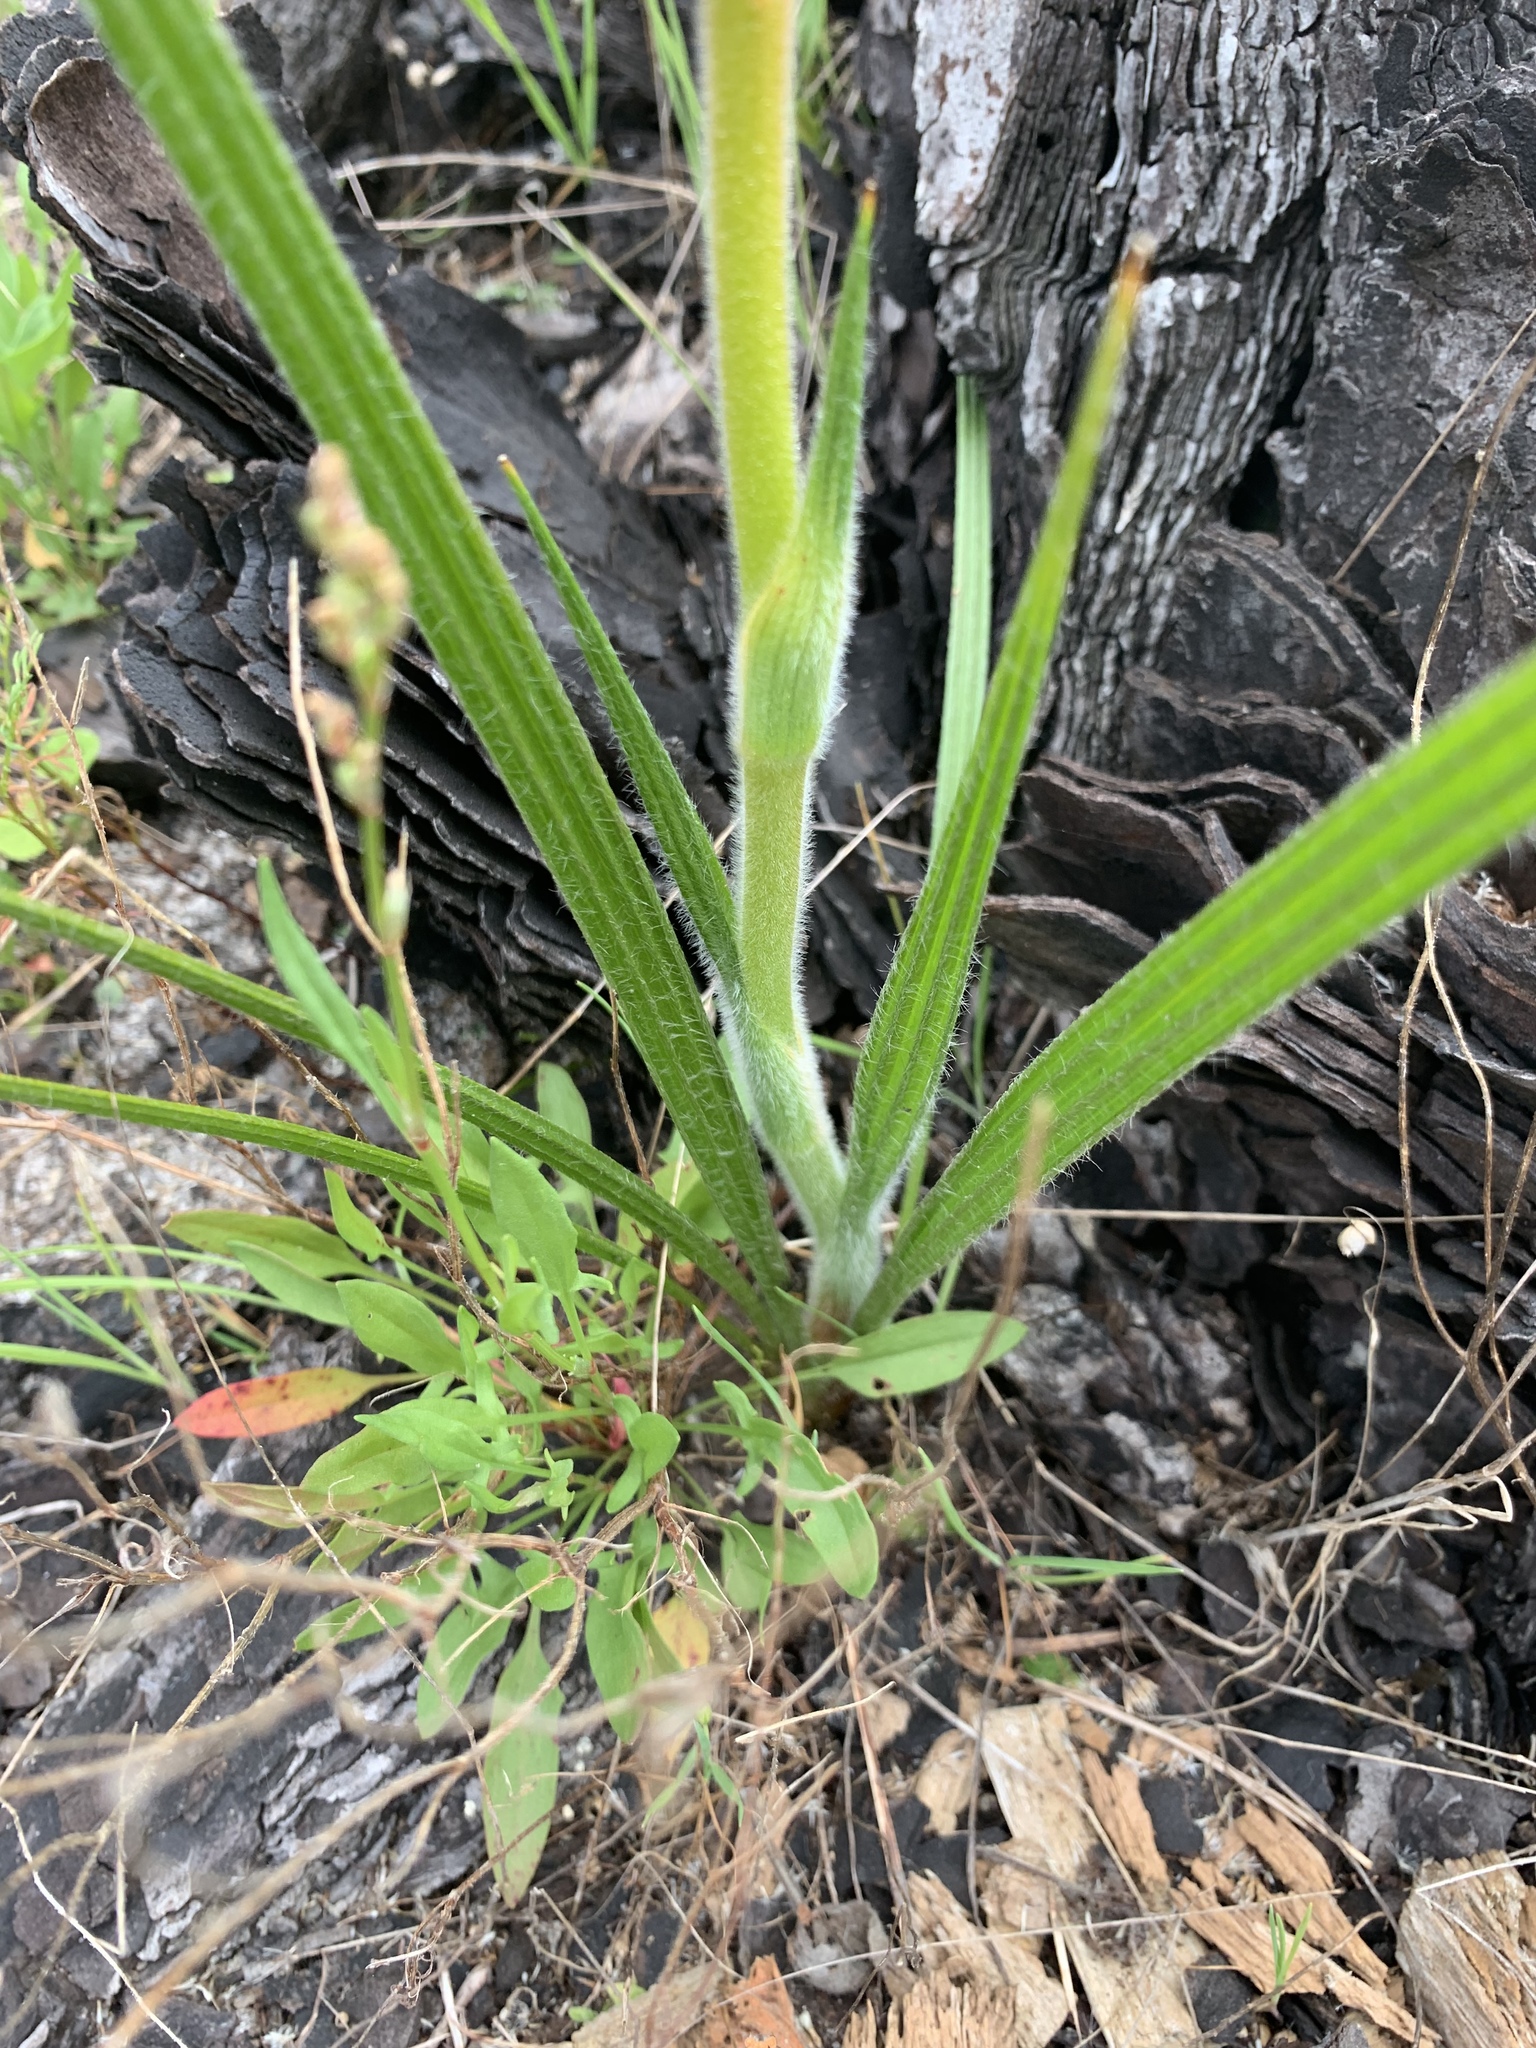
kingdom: Plantae
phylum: Tracheophyta
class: Liliopsida
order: Commelinales
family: Haemodoraceae
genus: Wachendorfia
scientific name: Wachendorfia paniculata
